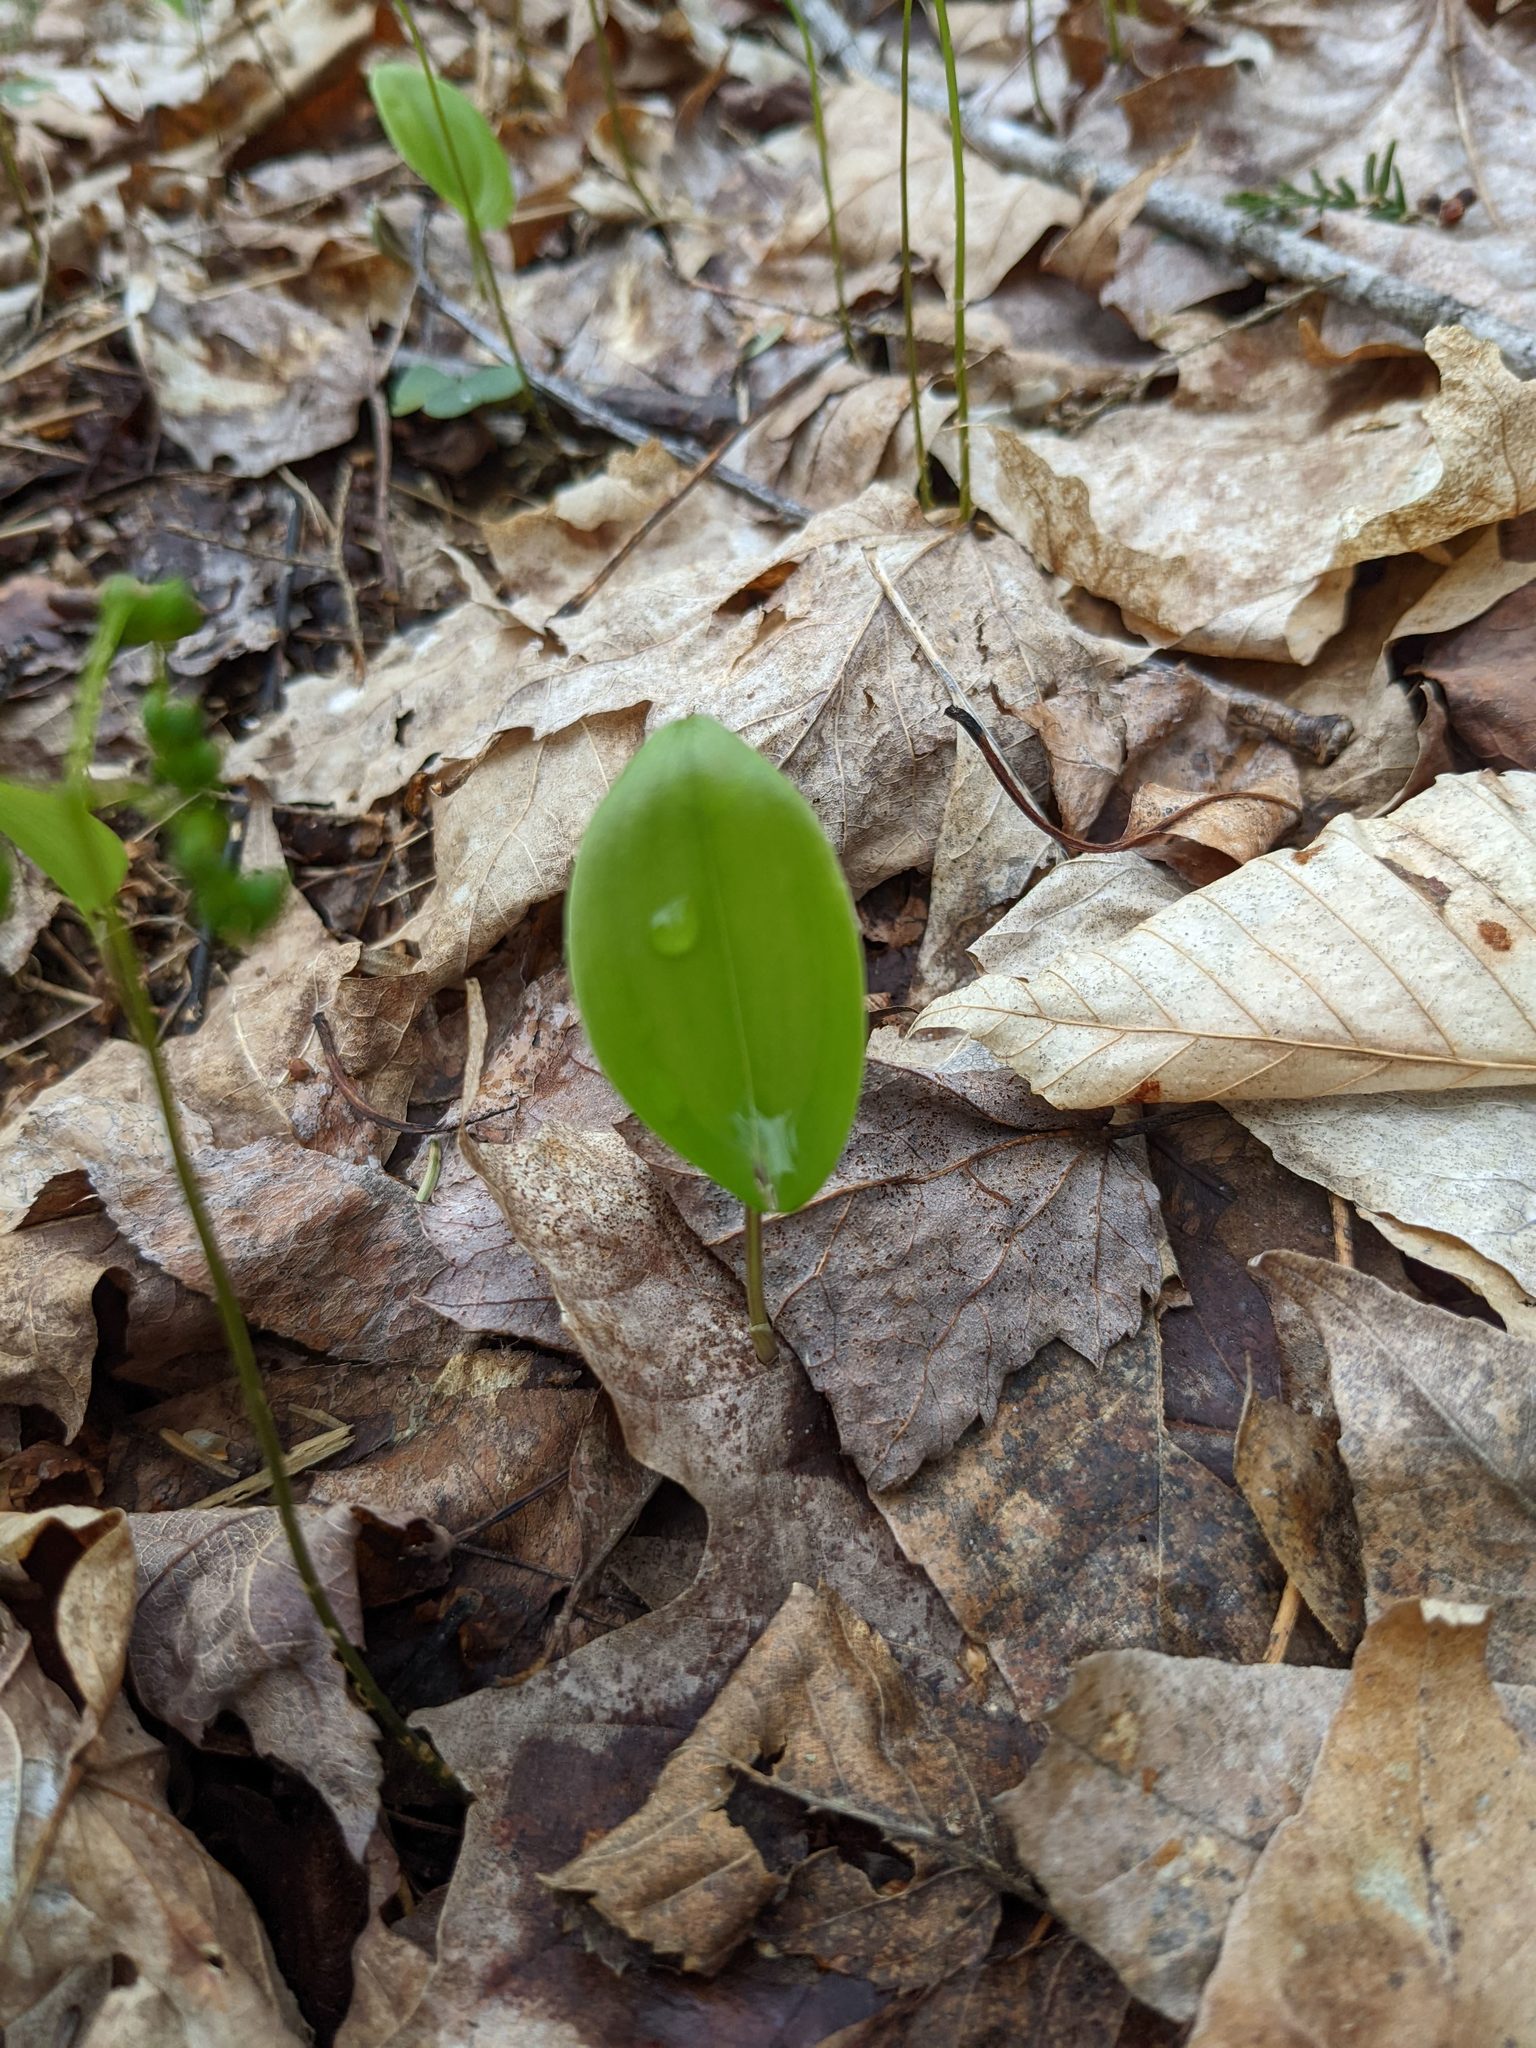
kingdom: Plantae
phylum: Tracheophyta
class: Liliopsida
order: Asparagales
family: Asparagaceae
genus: Maianthemum
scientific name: Maianthemum canadense
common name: False lily-of-the-valley
